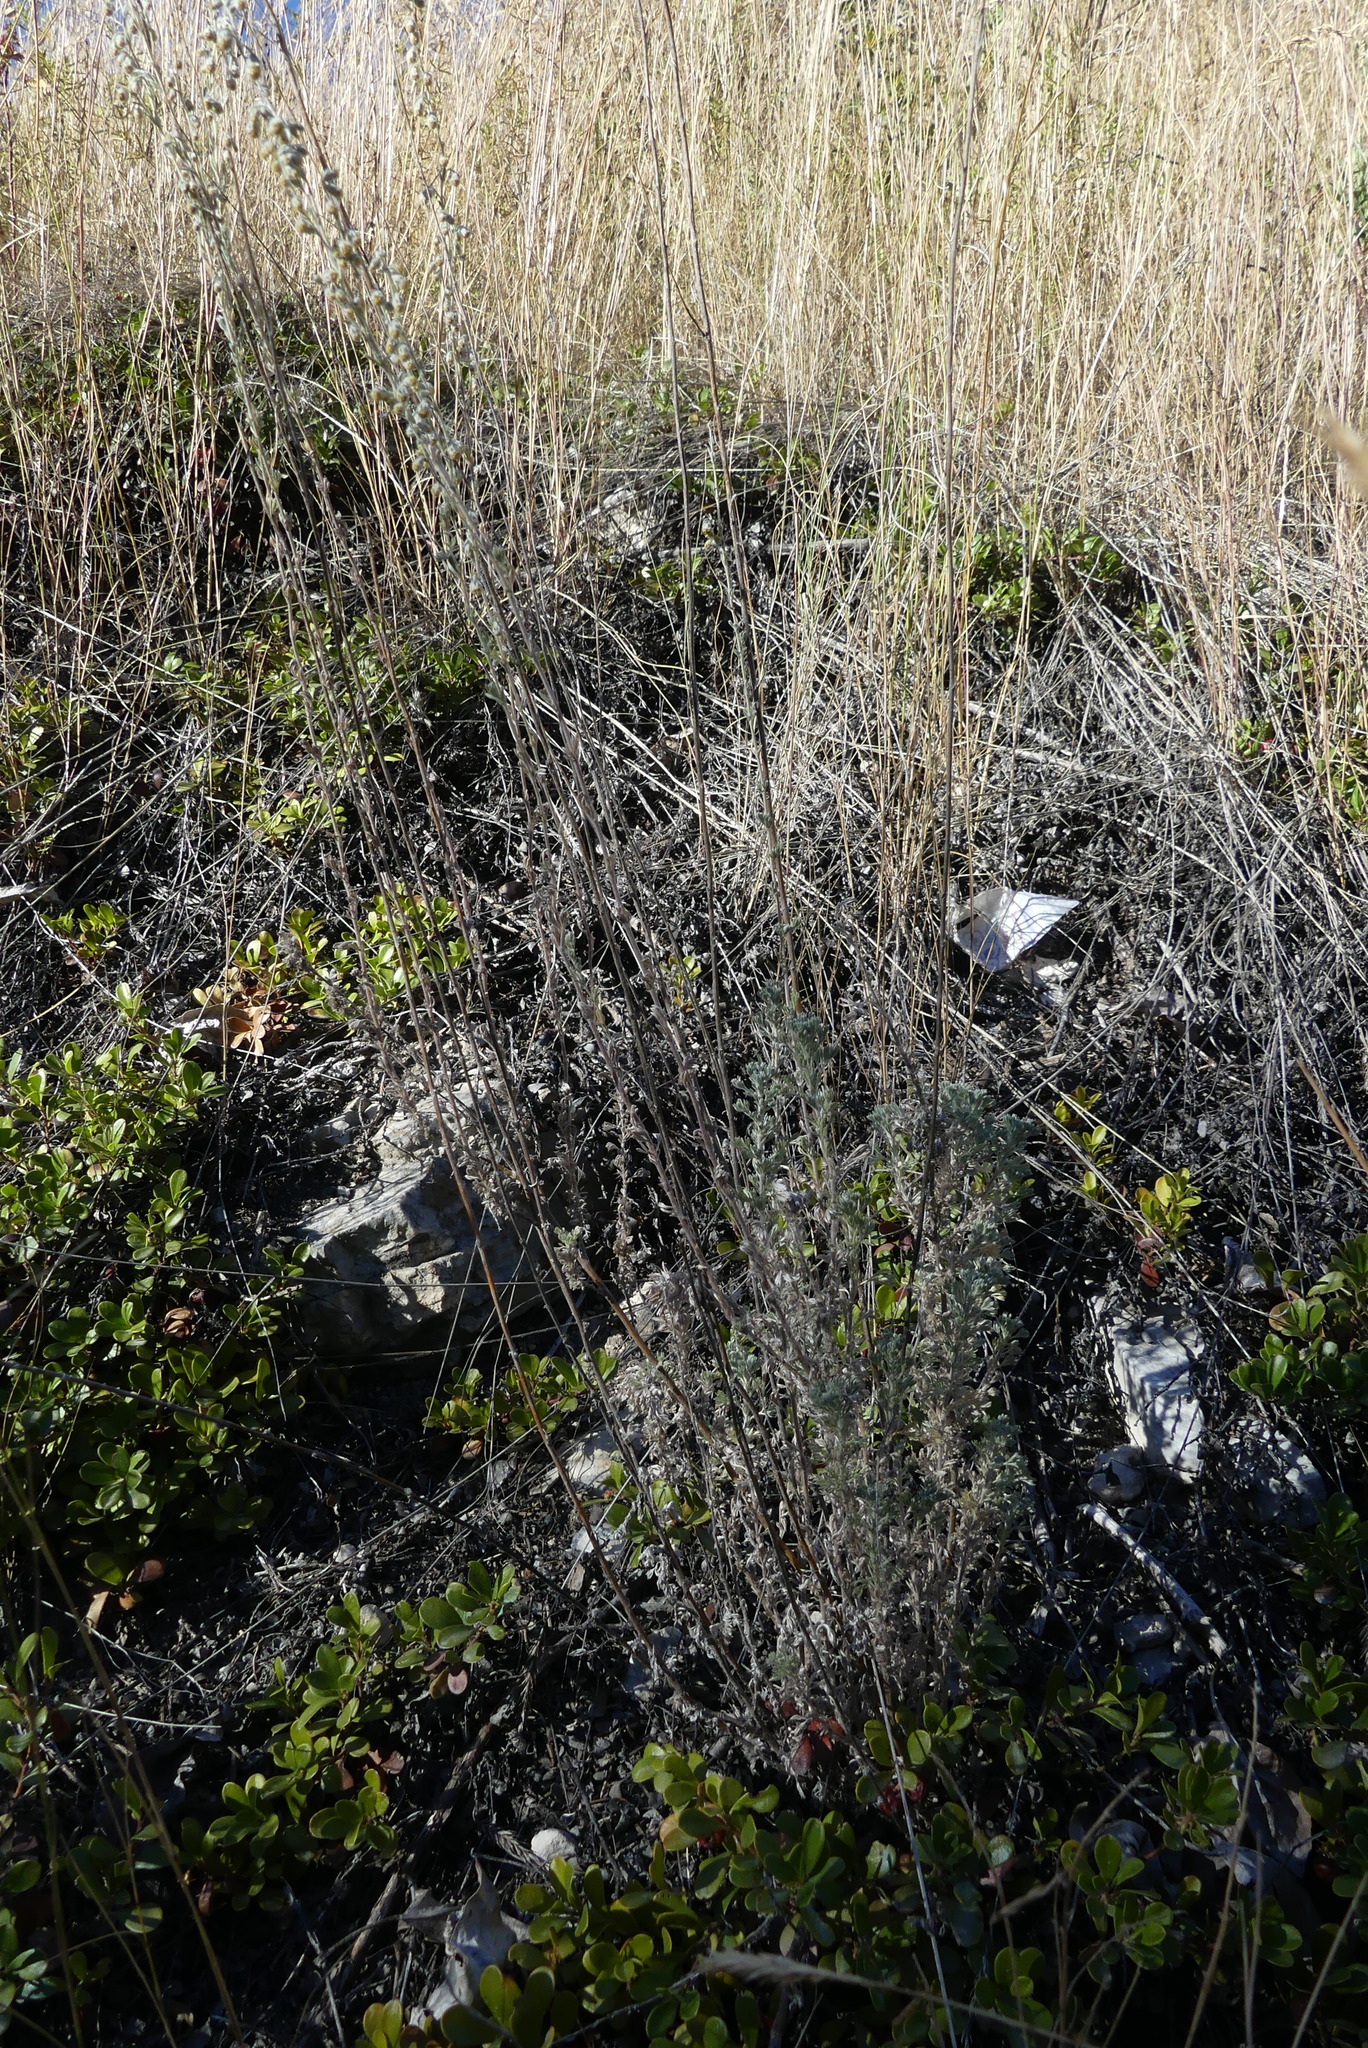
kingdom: Plantae
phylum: Tracheophyta
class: Magnoliopsida
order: Asterales
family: Asteraceae
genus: Artemisia
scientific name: Artemisia frigida
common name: Prairie sagewort
